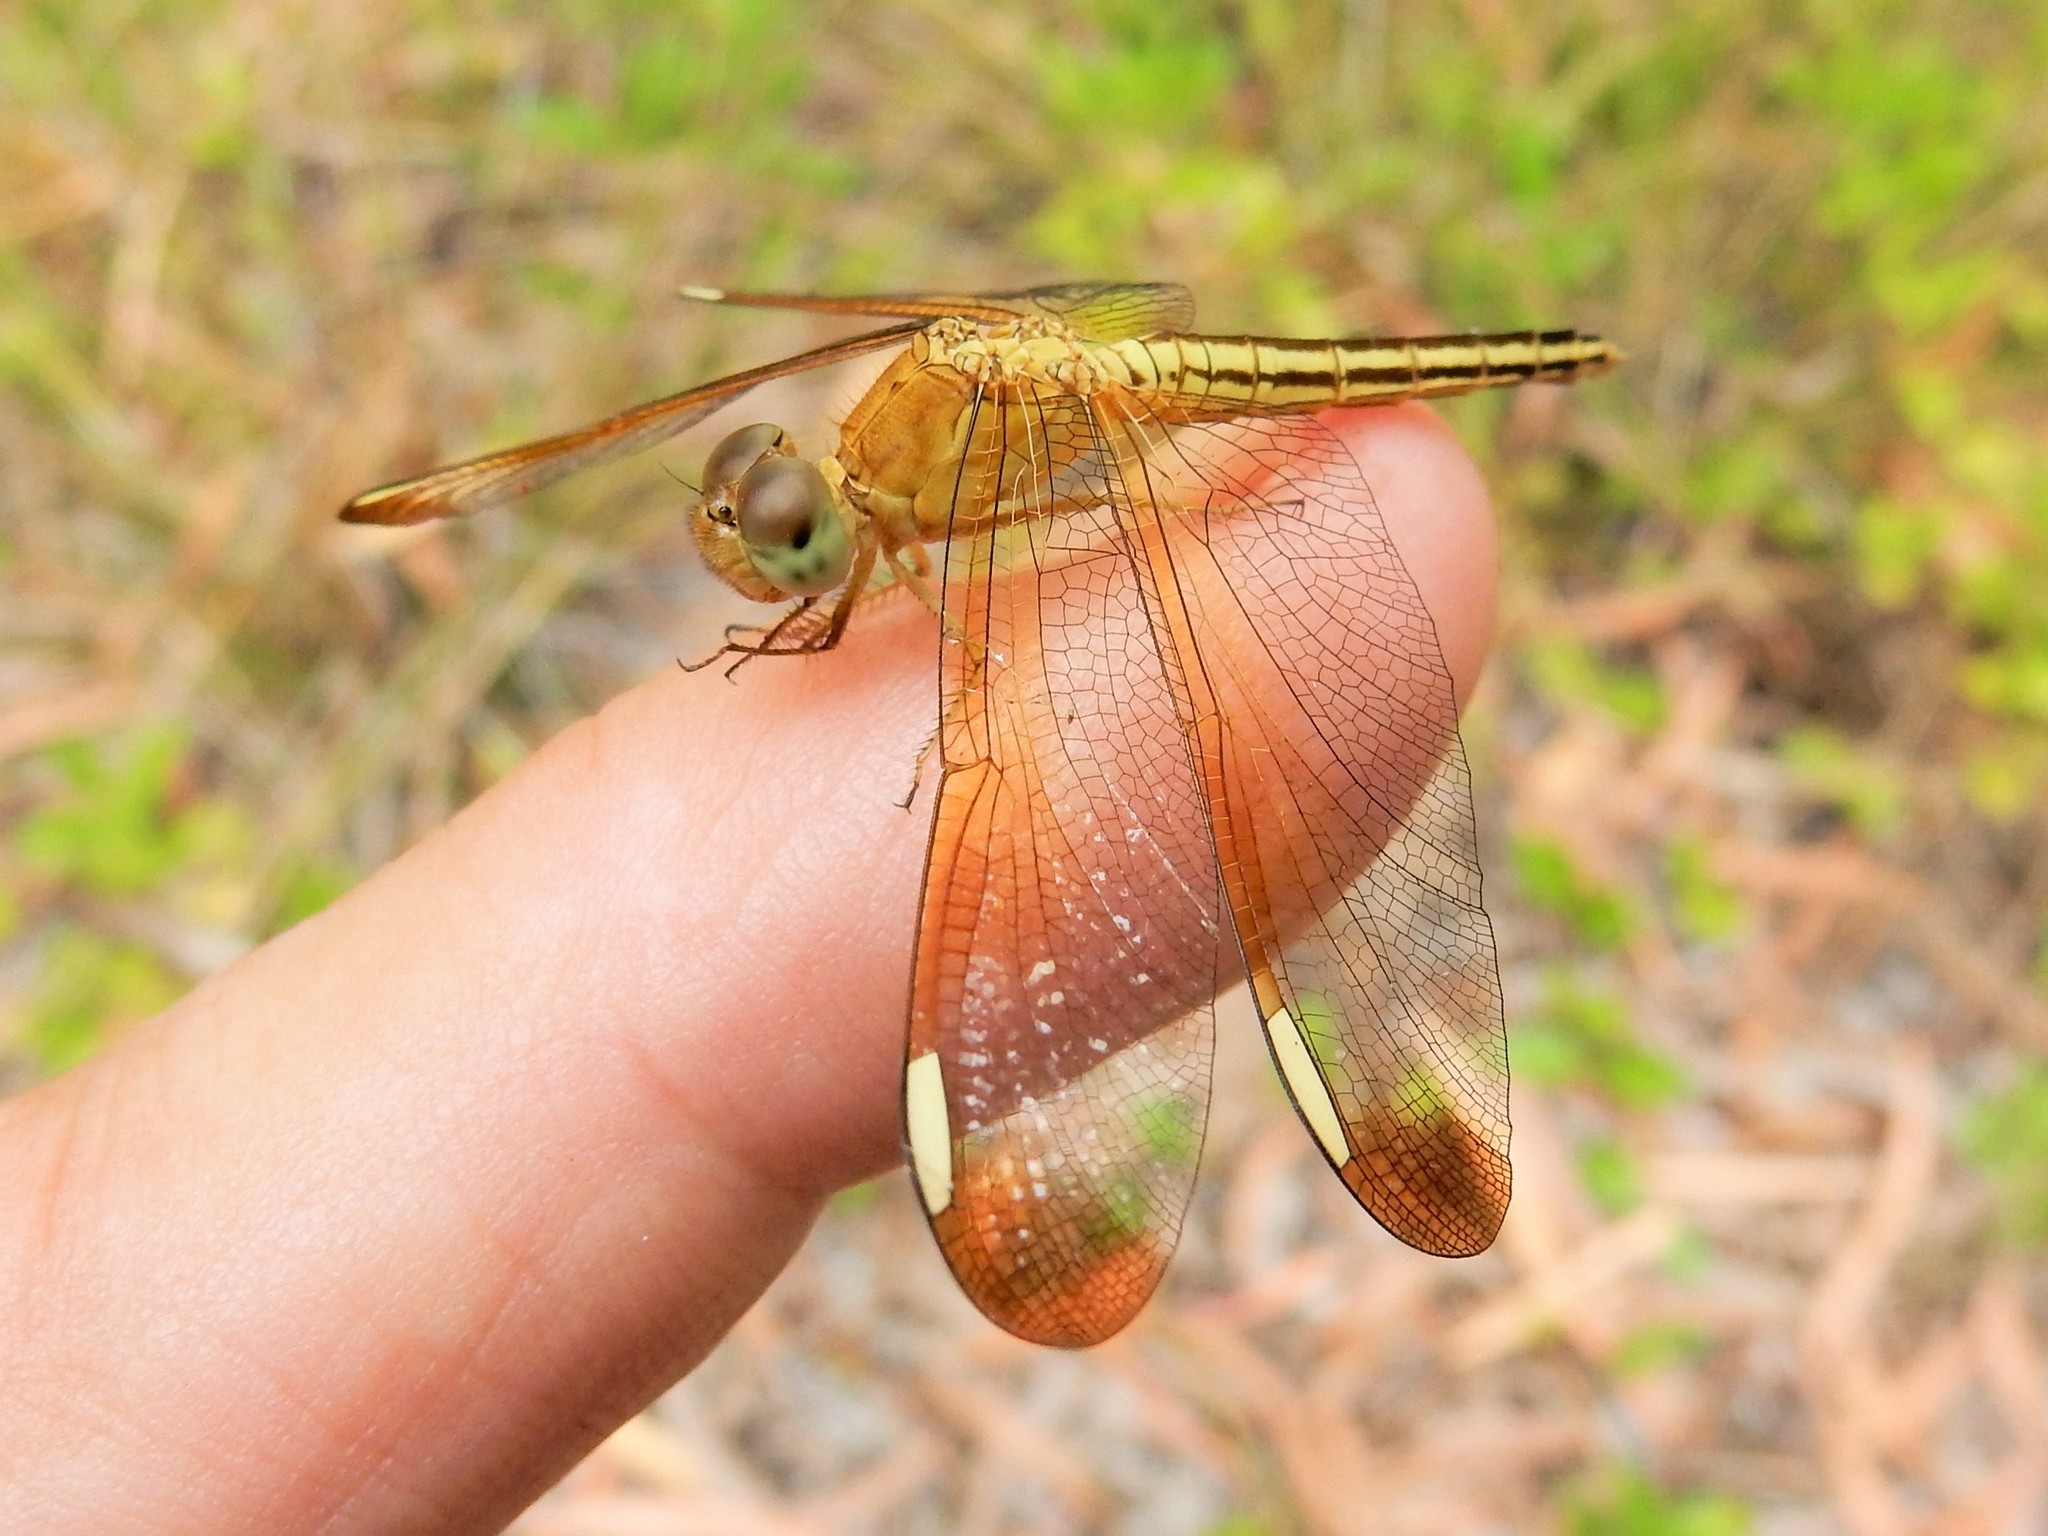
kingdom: Animalia
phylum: Arthropoda
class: Insecta
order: Odonata
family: Libellulidae
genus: Neurothemis
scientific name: Neurothemis stigmatizans
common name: Painted grasshawk
